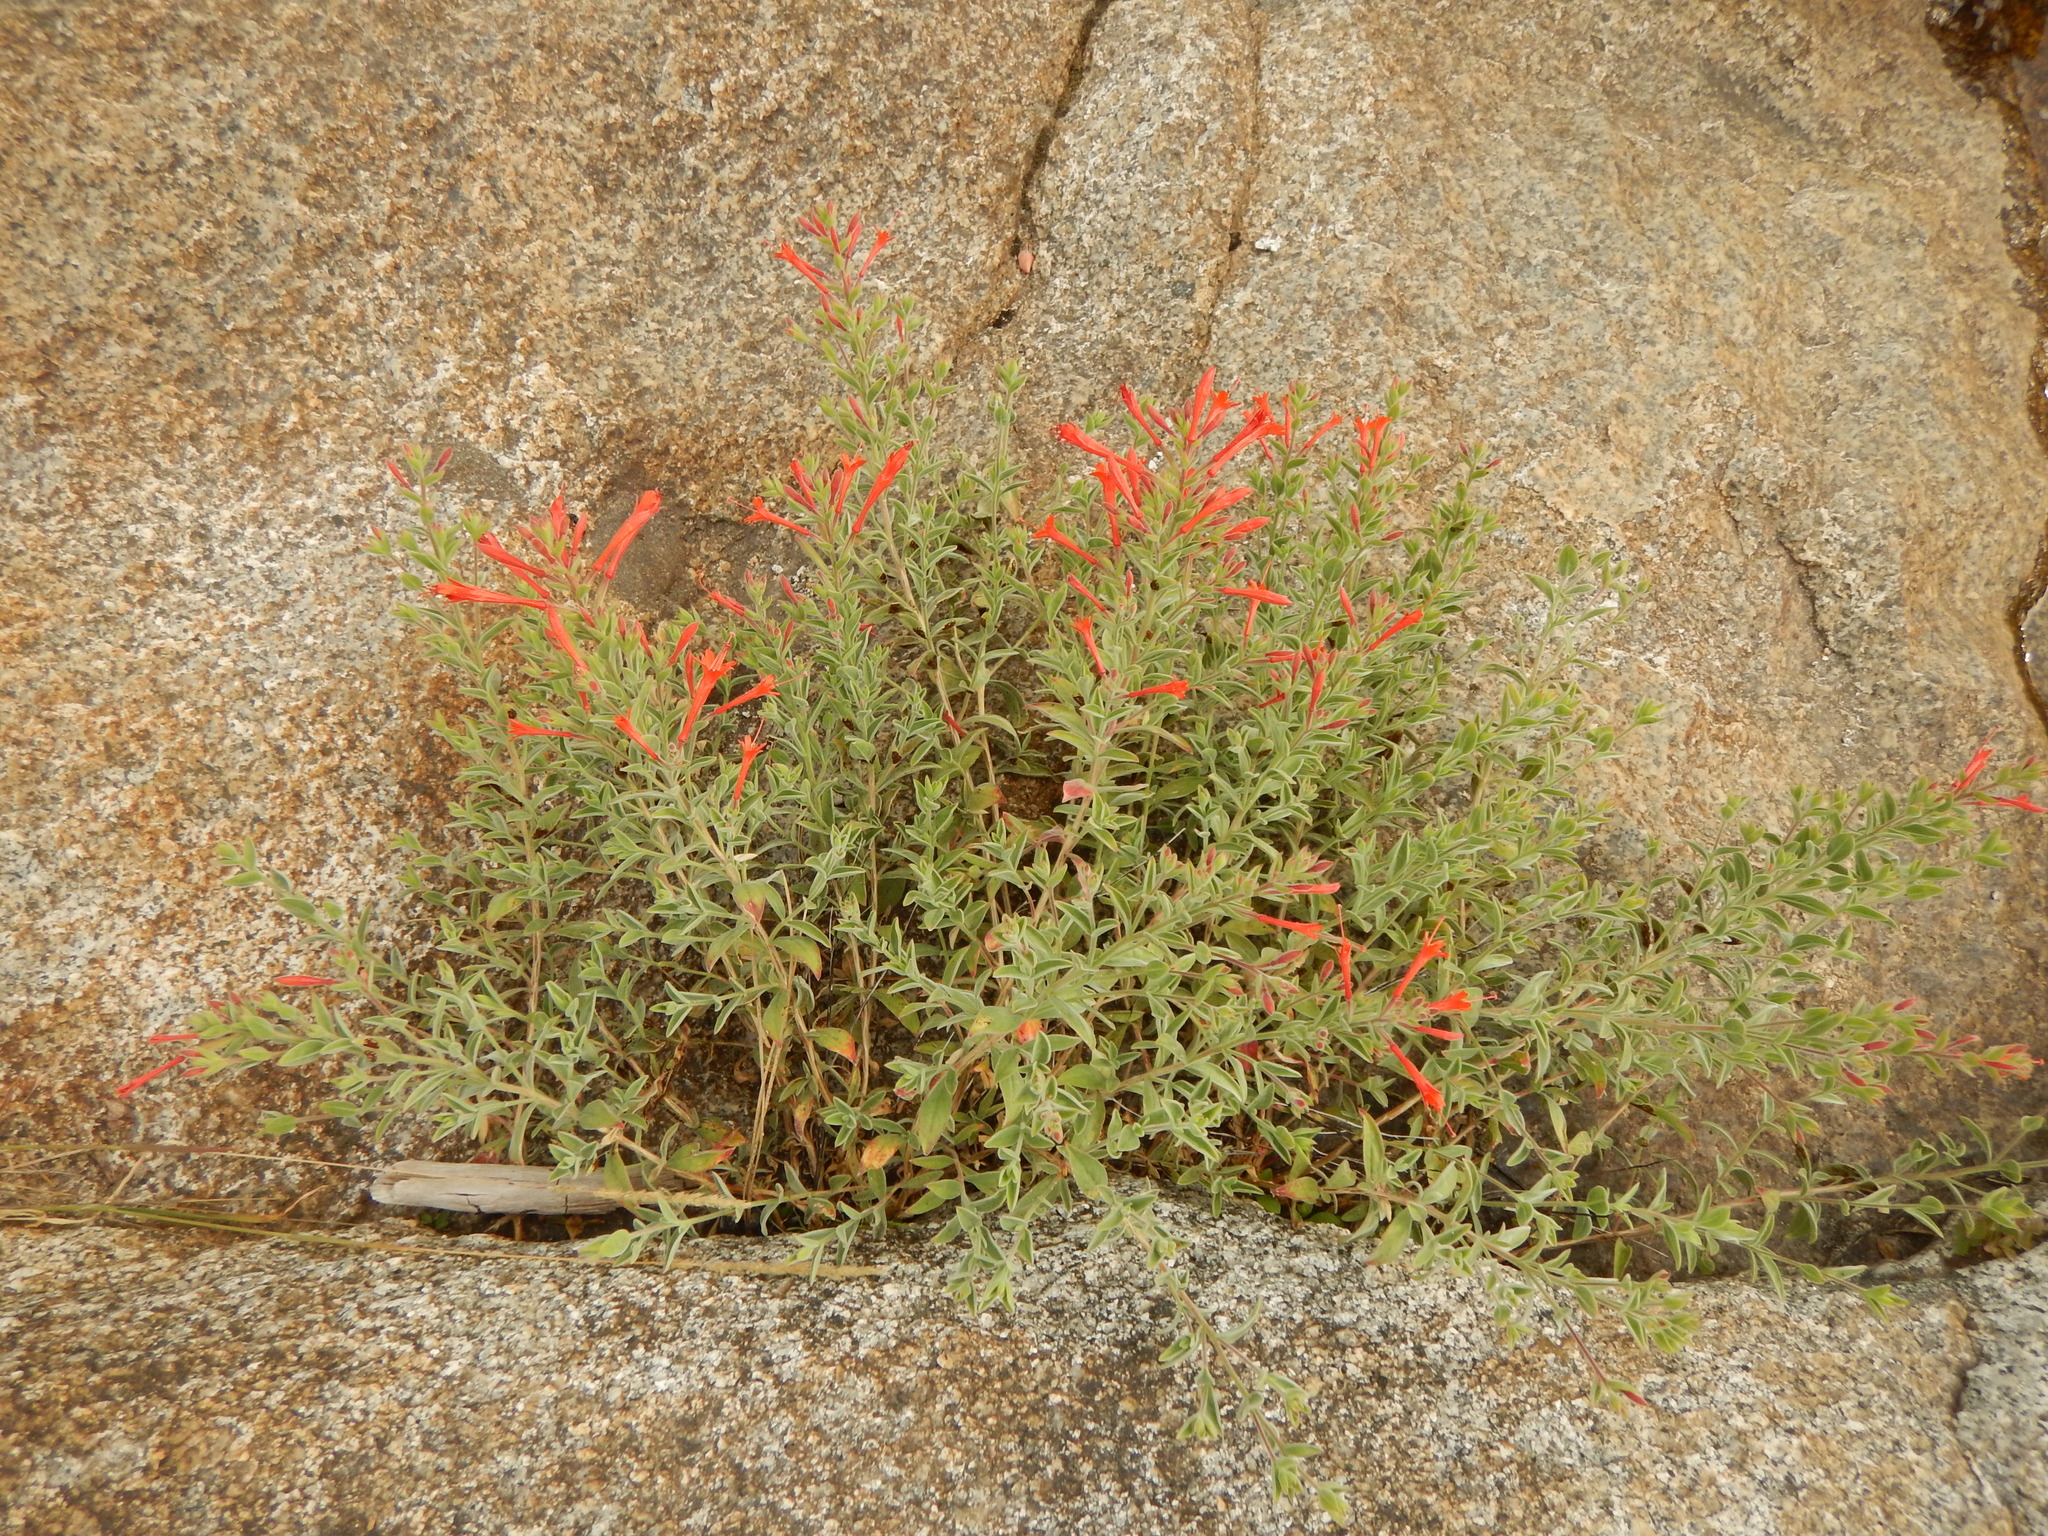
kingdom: Plantae
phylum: Tracheophyta
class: Magnoliopsida
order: Myrtales
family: Onagraceae
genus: Epilobium
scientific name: Epilobium canum
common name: California-fuchsia
